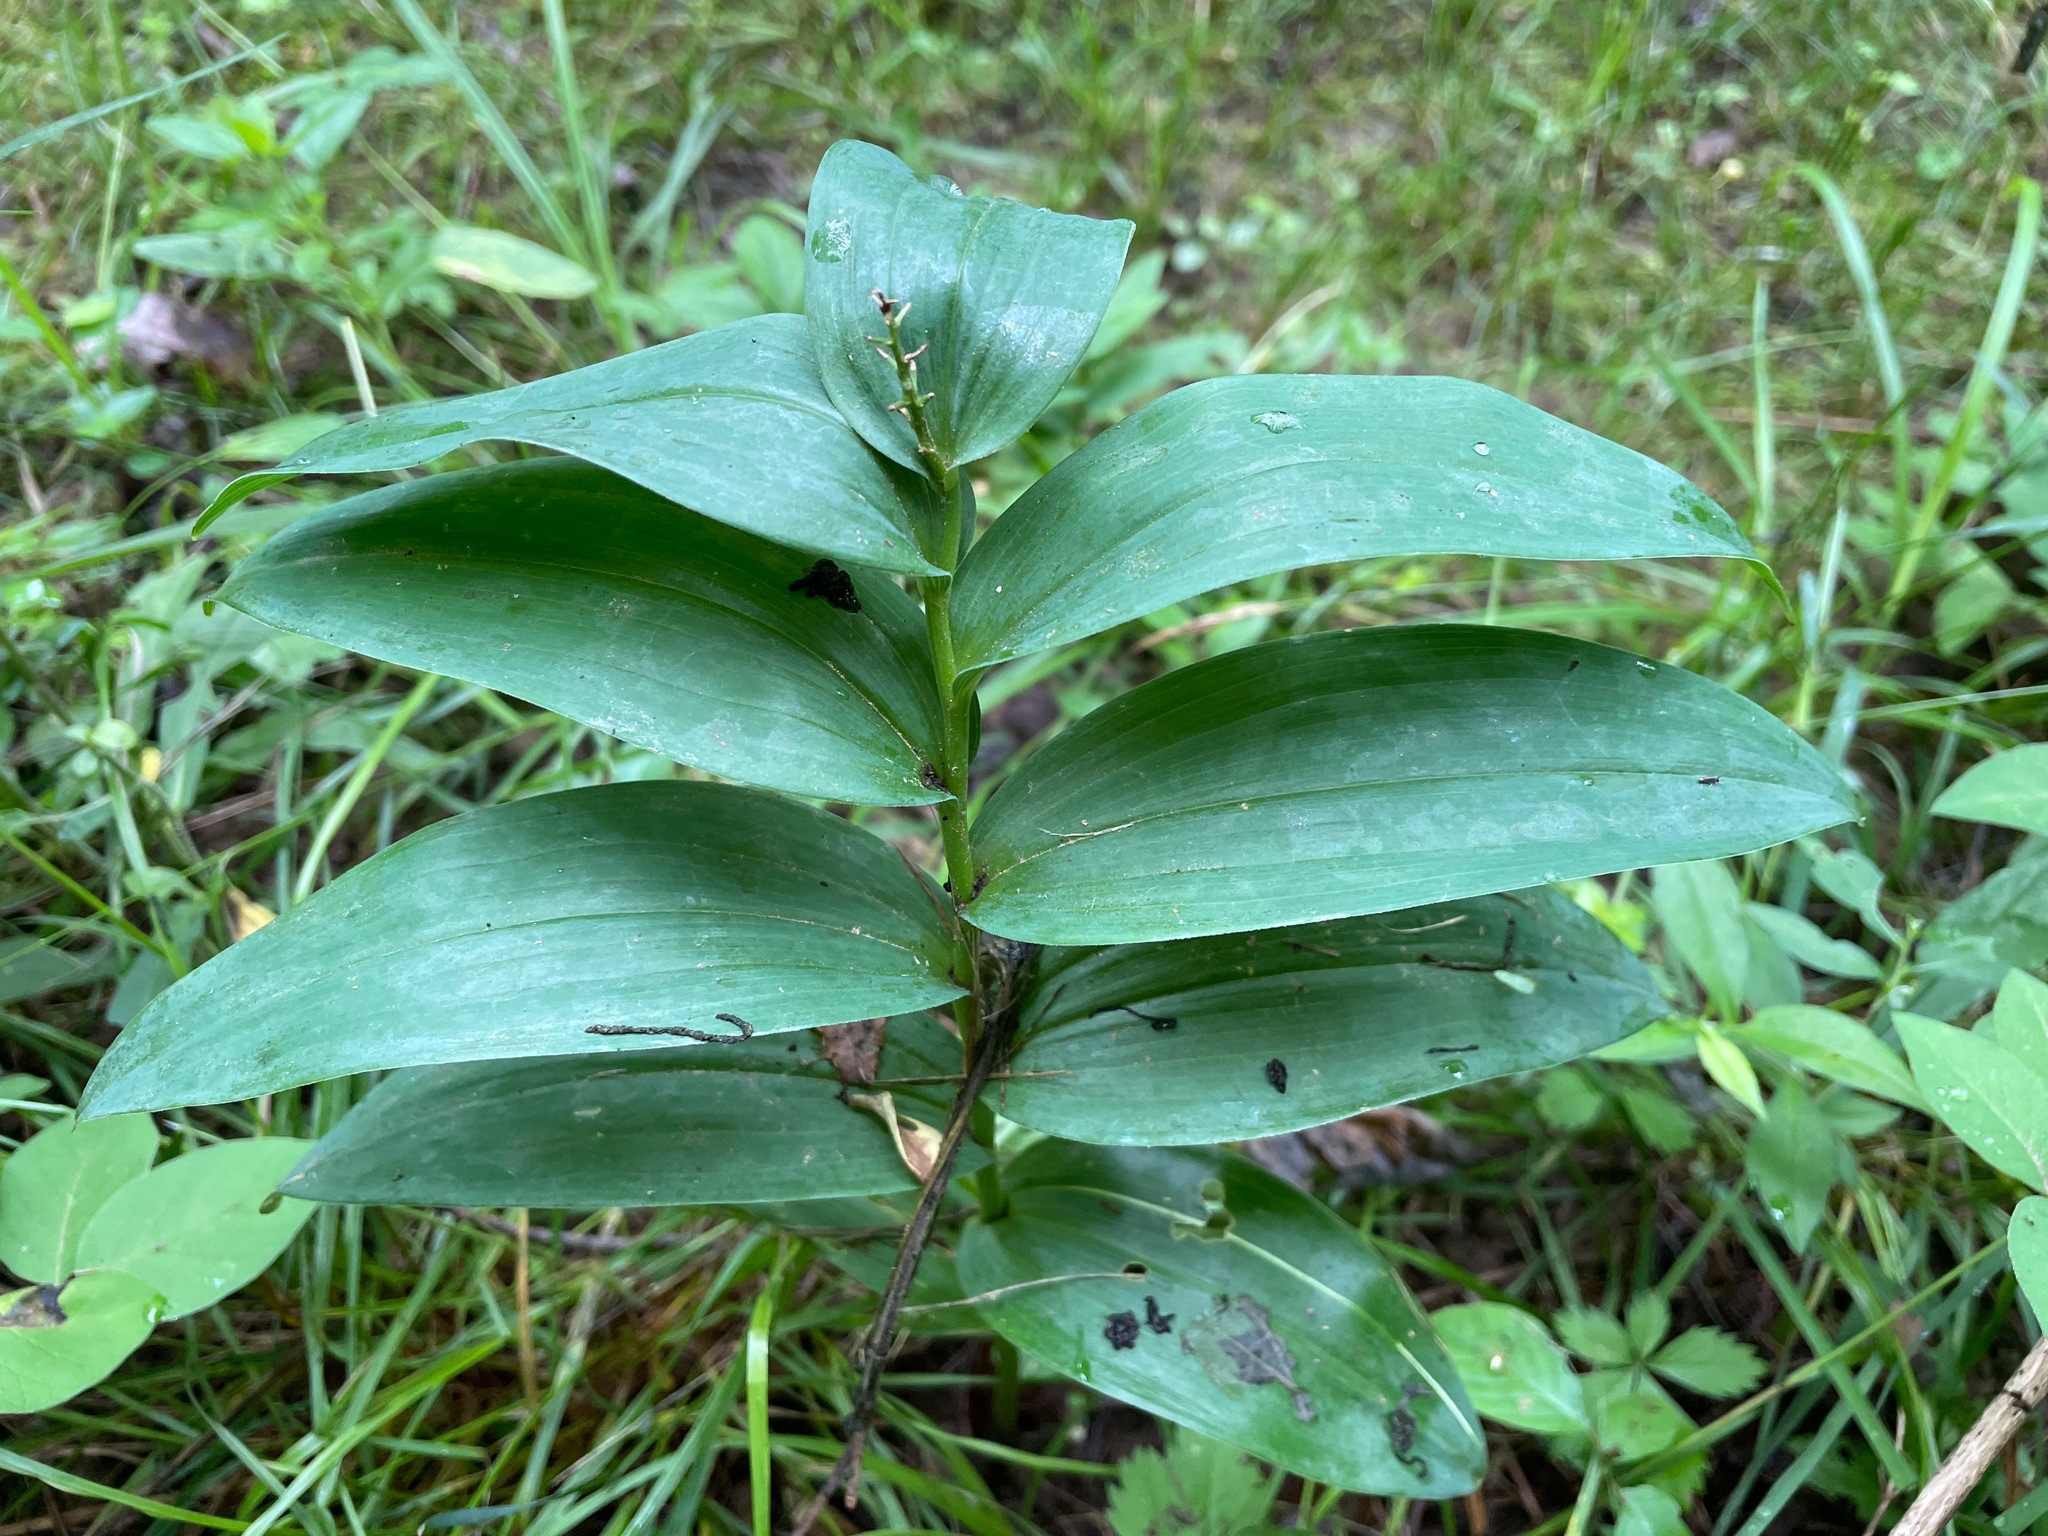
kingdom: Plantae
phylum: Tracheophyta
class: Liliopsida
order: Asparagales
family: Asparagaceae
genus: Maianthemum
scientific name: Maianthemum stellatum
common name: Little false solomon's seal
